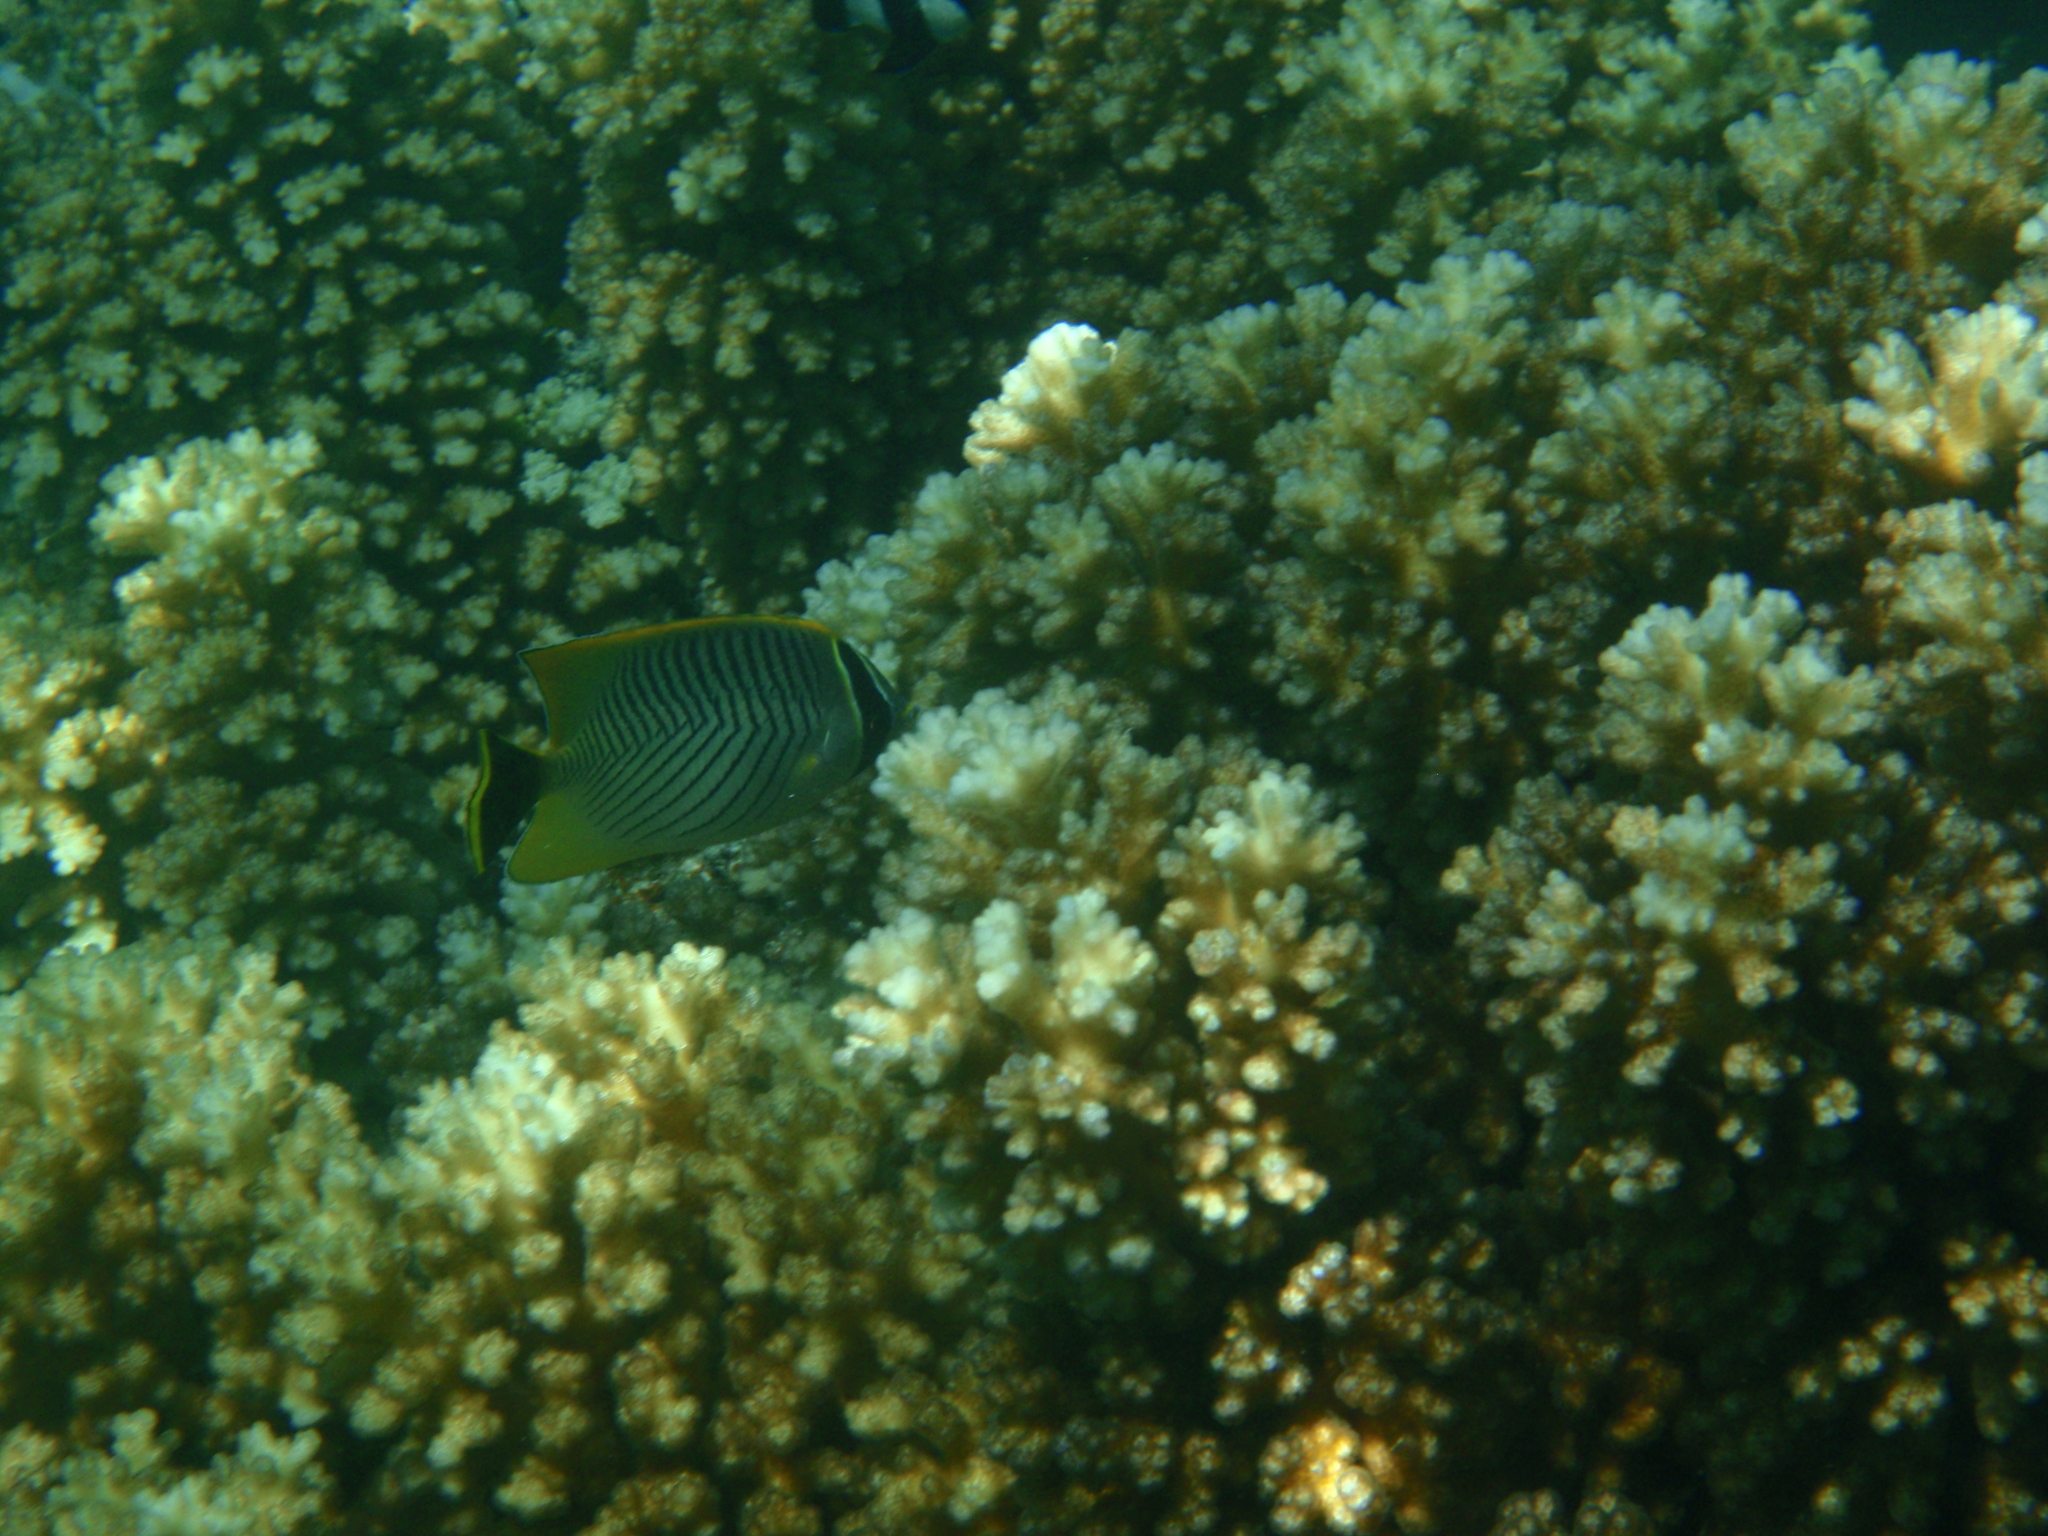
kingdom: Animalia
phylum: Chordata
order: Perciformes
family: Chaetodontidae
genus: Chaetodon
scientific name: Chaetodon trifascialis
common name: Chevroned butterflyfish
